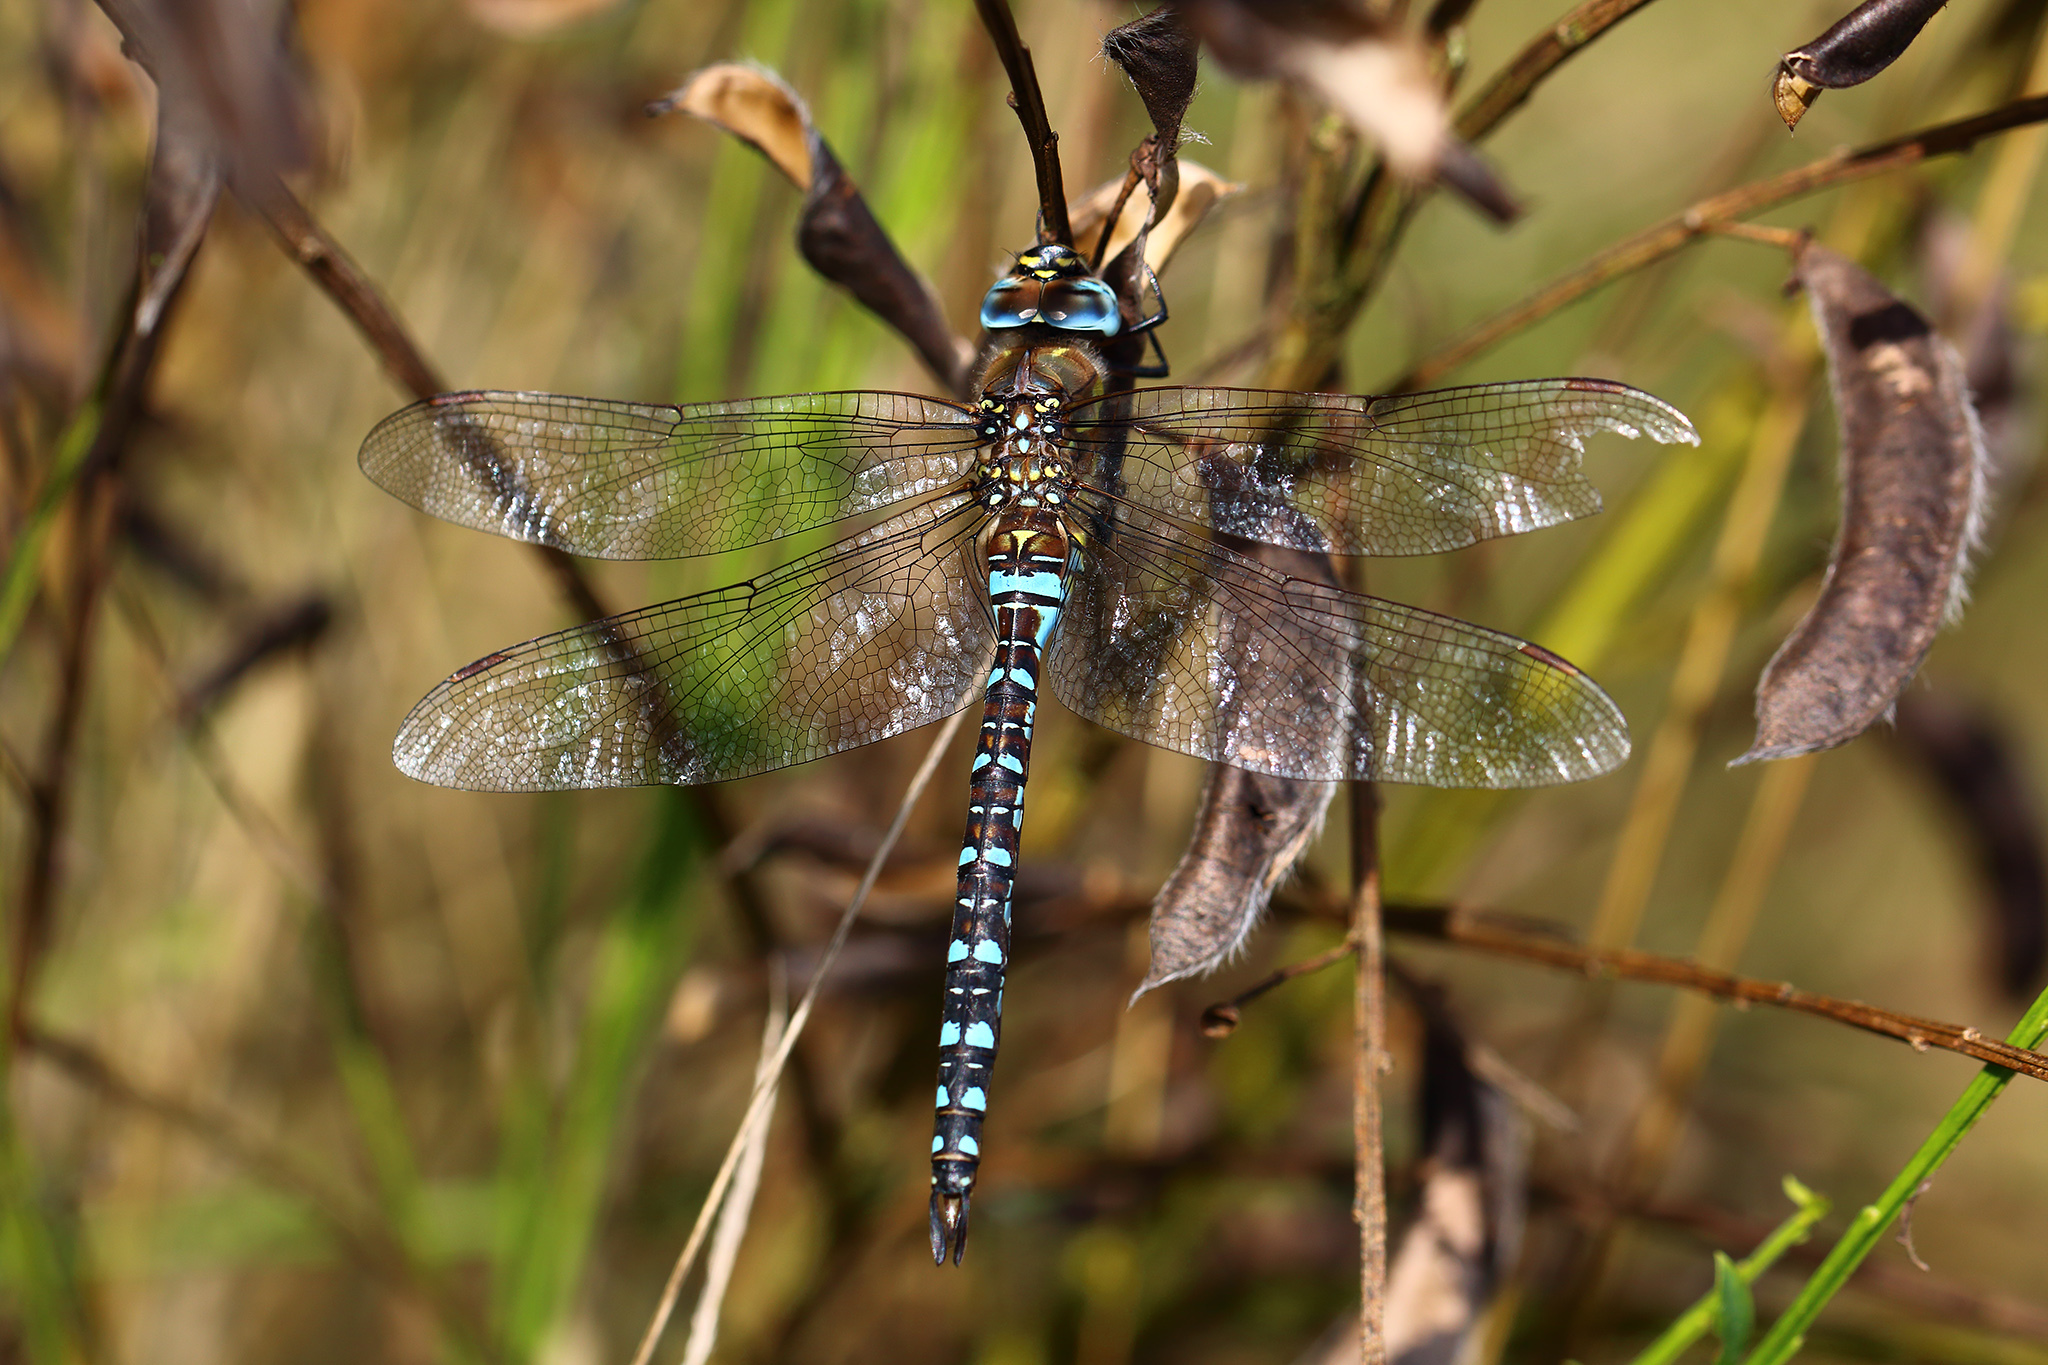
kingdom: Animalia
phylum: Arthropoda
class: Insecta
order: Odonata
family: Aeshnidae
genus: Aeshna
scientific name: Aeshna mixta
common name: Migrant hawker
